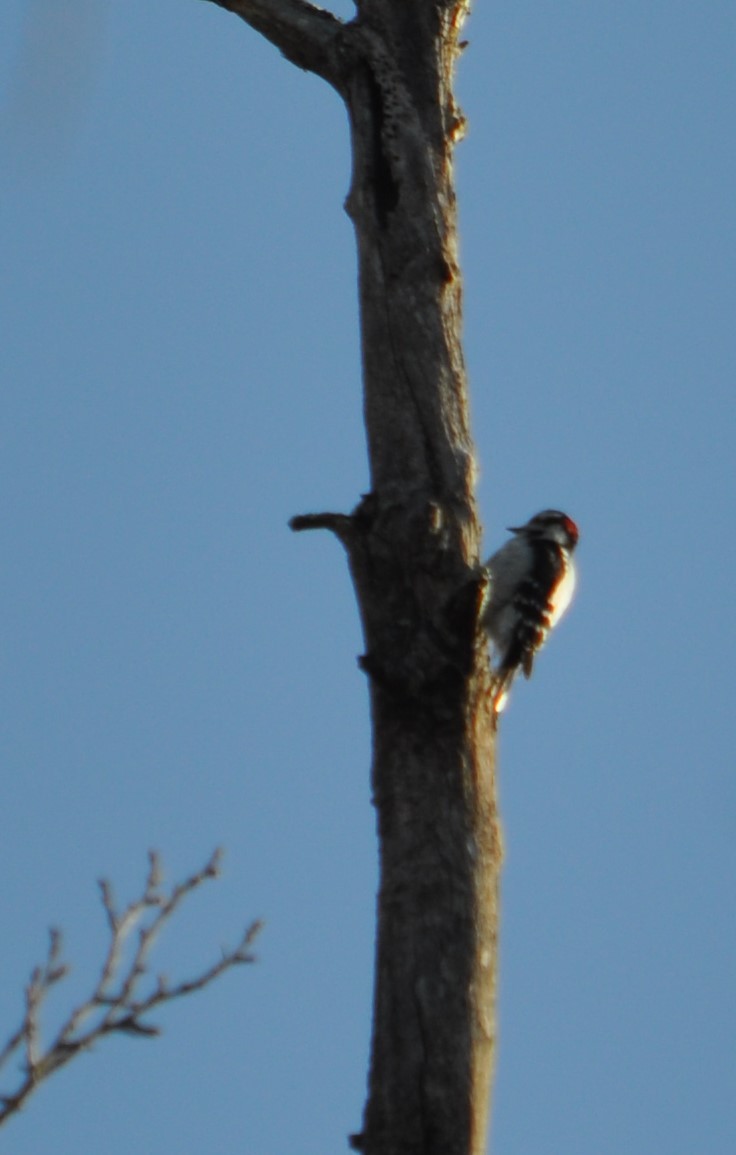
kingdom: Animalia
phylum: Chordata
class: Aves
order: Piciformes
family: Picidae
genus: Dryobates
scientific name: Dryobates pubescens
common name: Downy woodpecker
